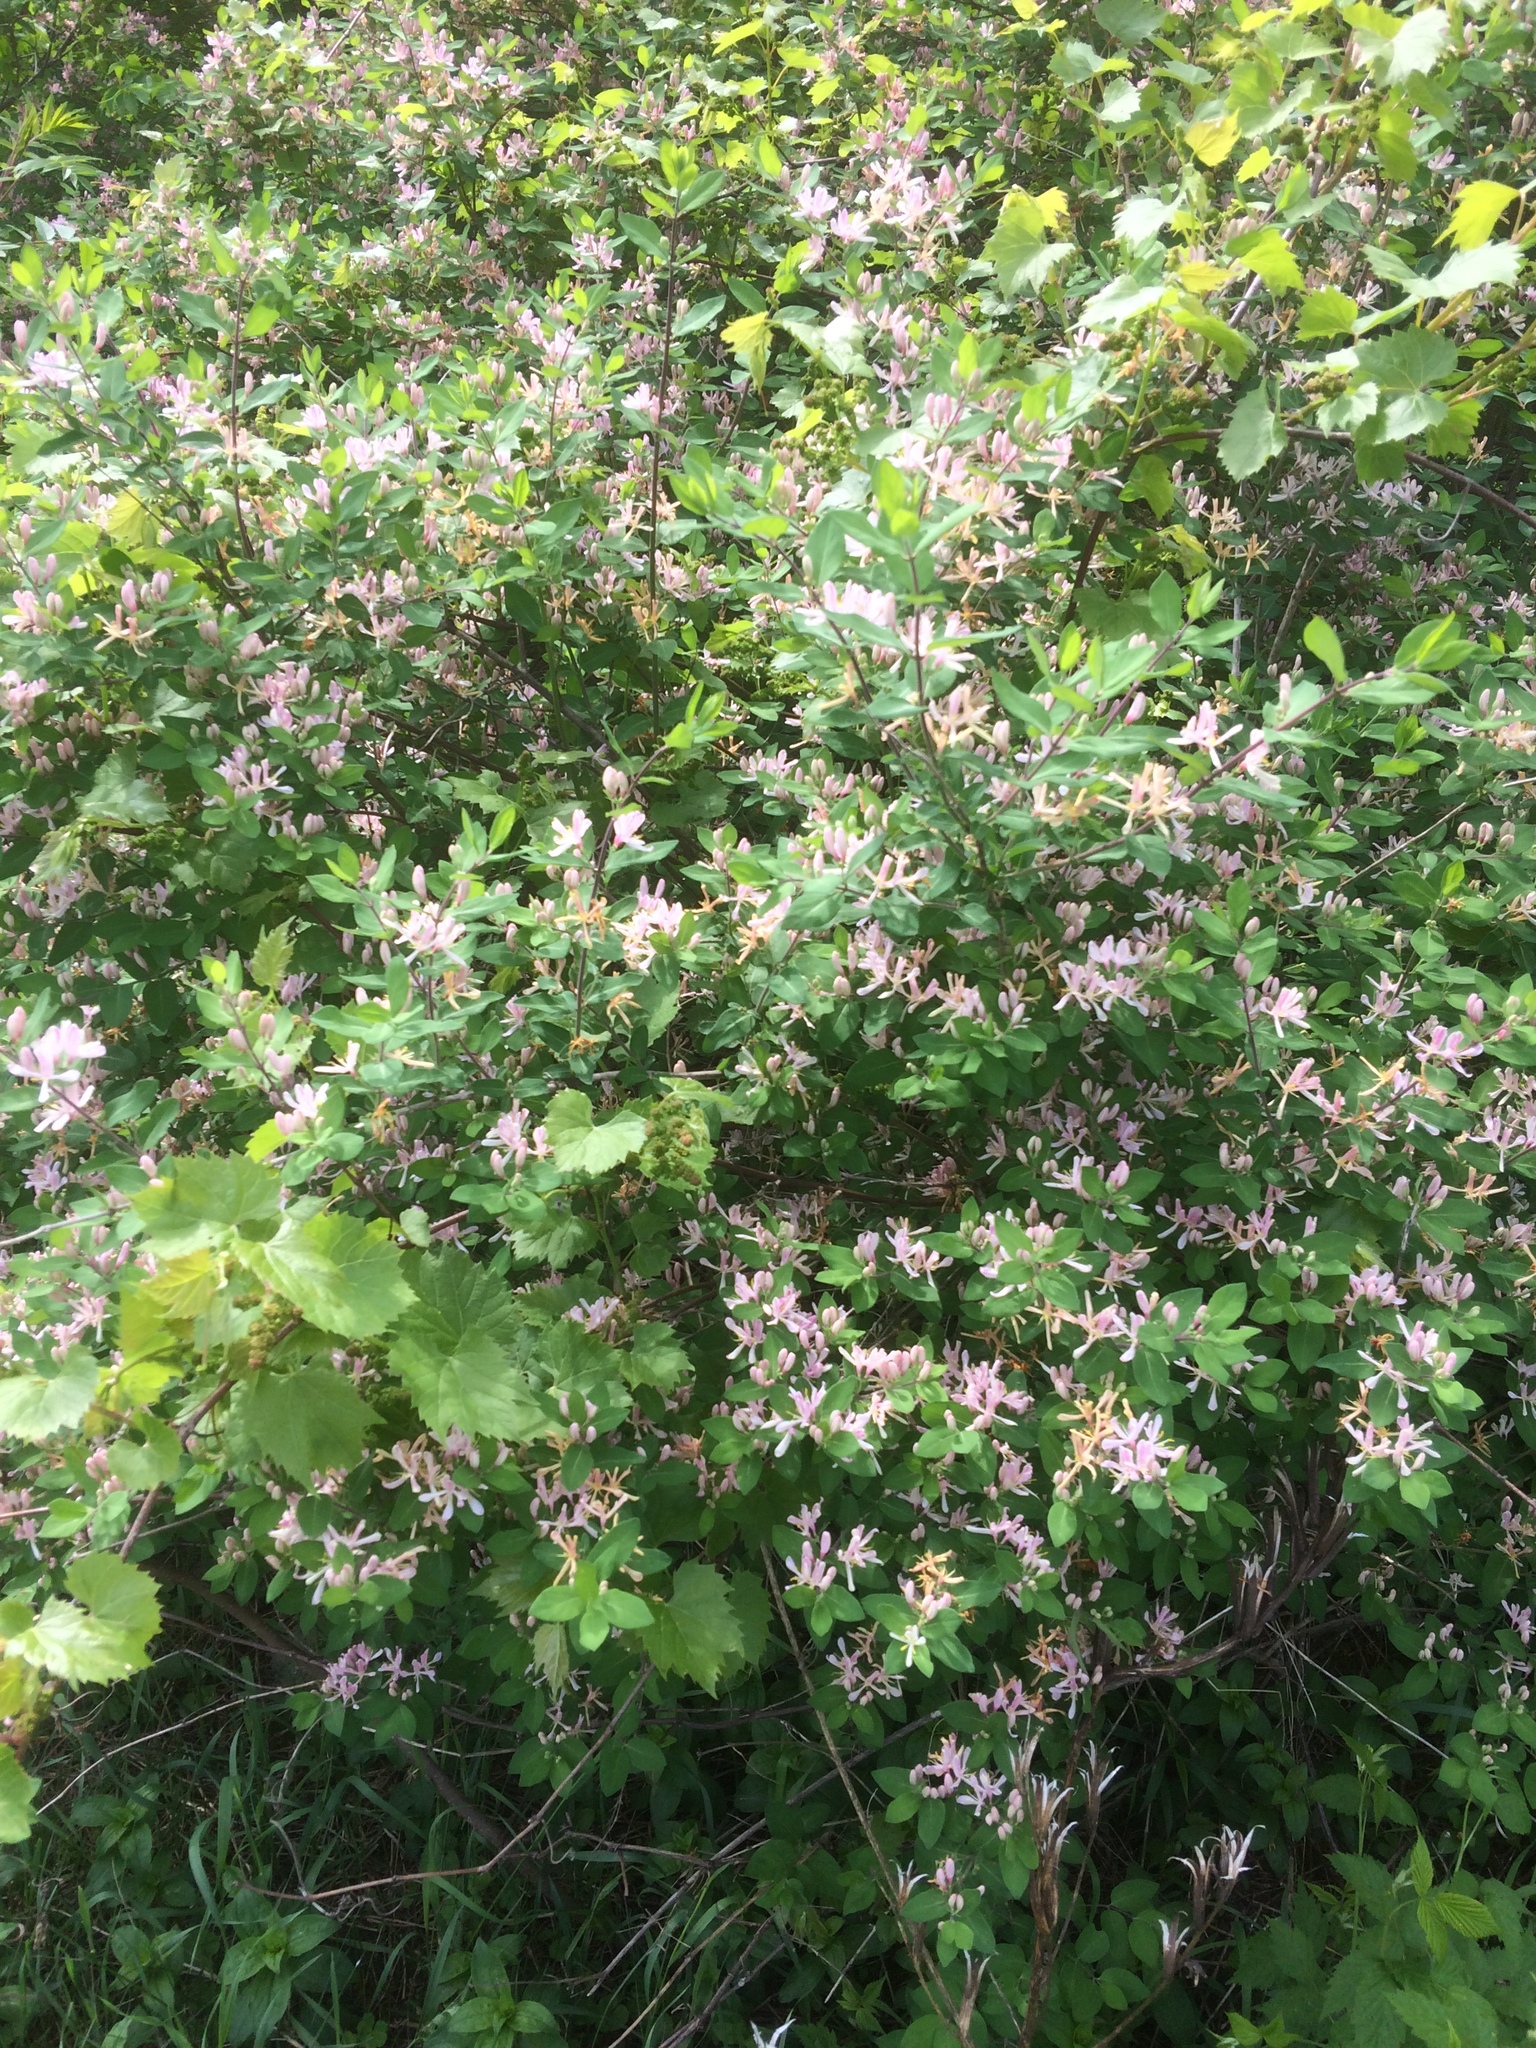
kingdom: Plantae
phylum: Tracheophyta
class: Magnoliopsida
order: Dipsacales
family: Caprifoliaceae
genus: Lonicera
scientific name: Lonicera tatarica
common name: Tatarian honeysuckle
